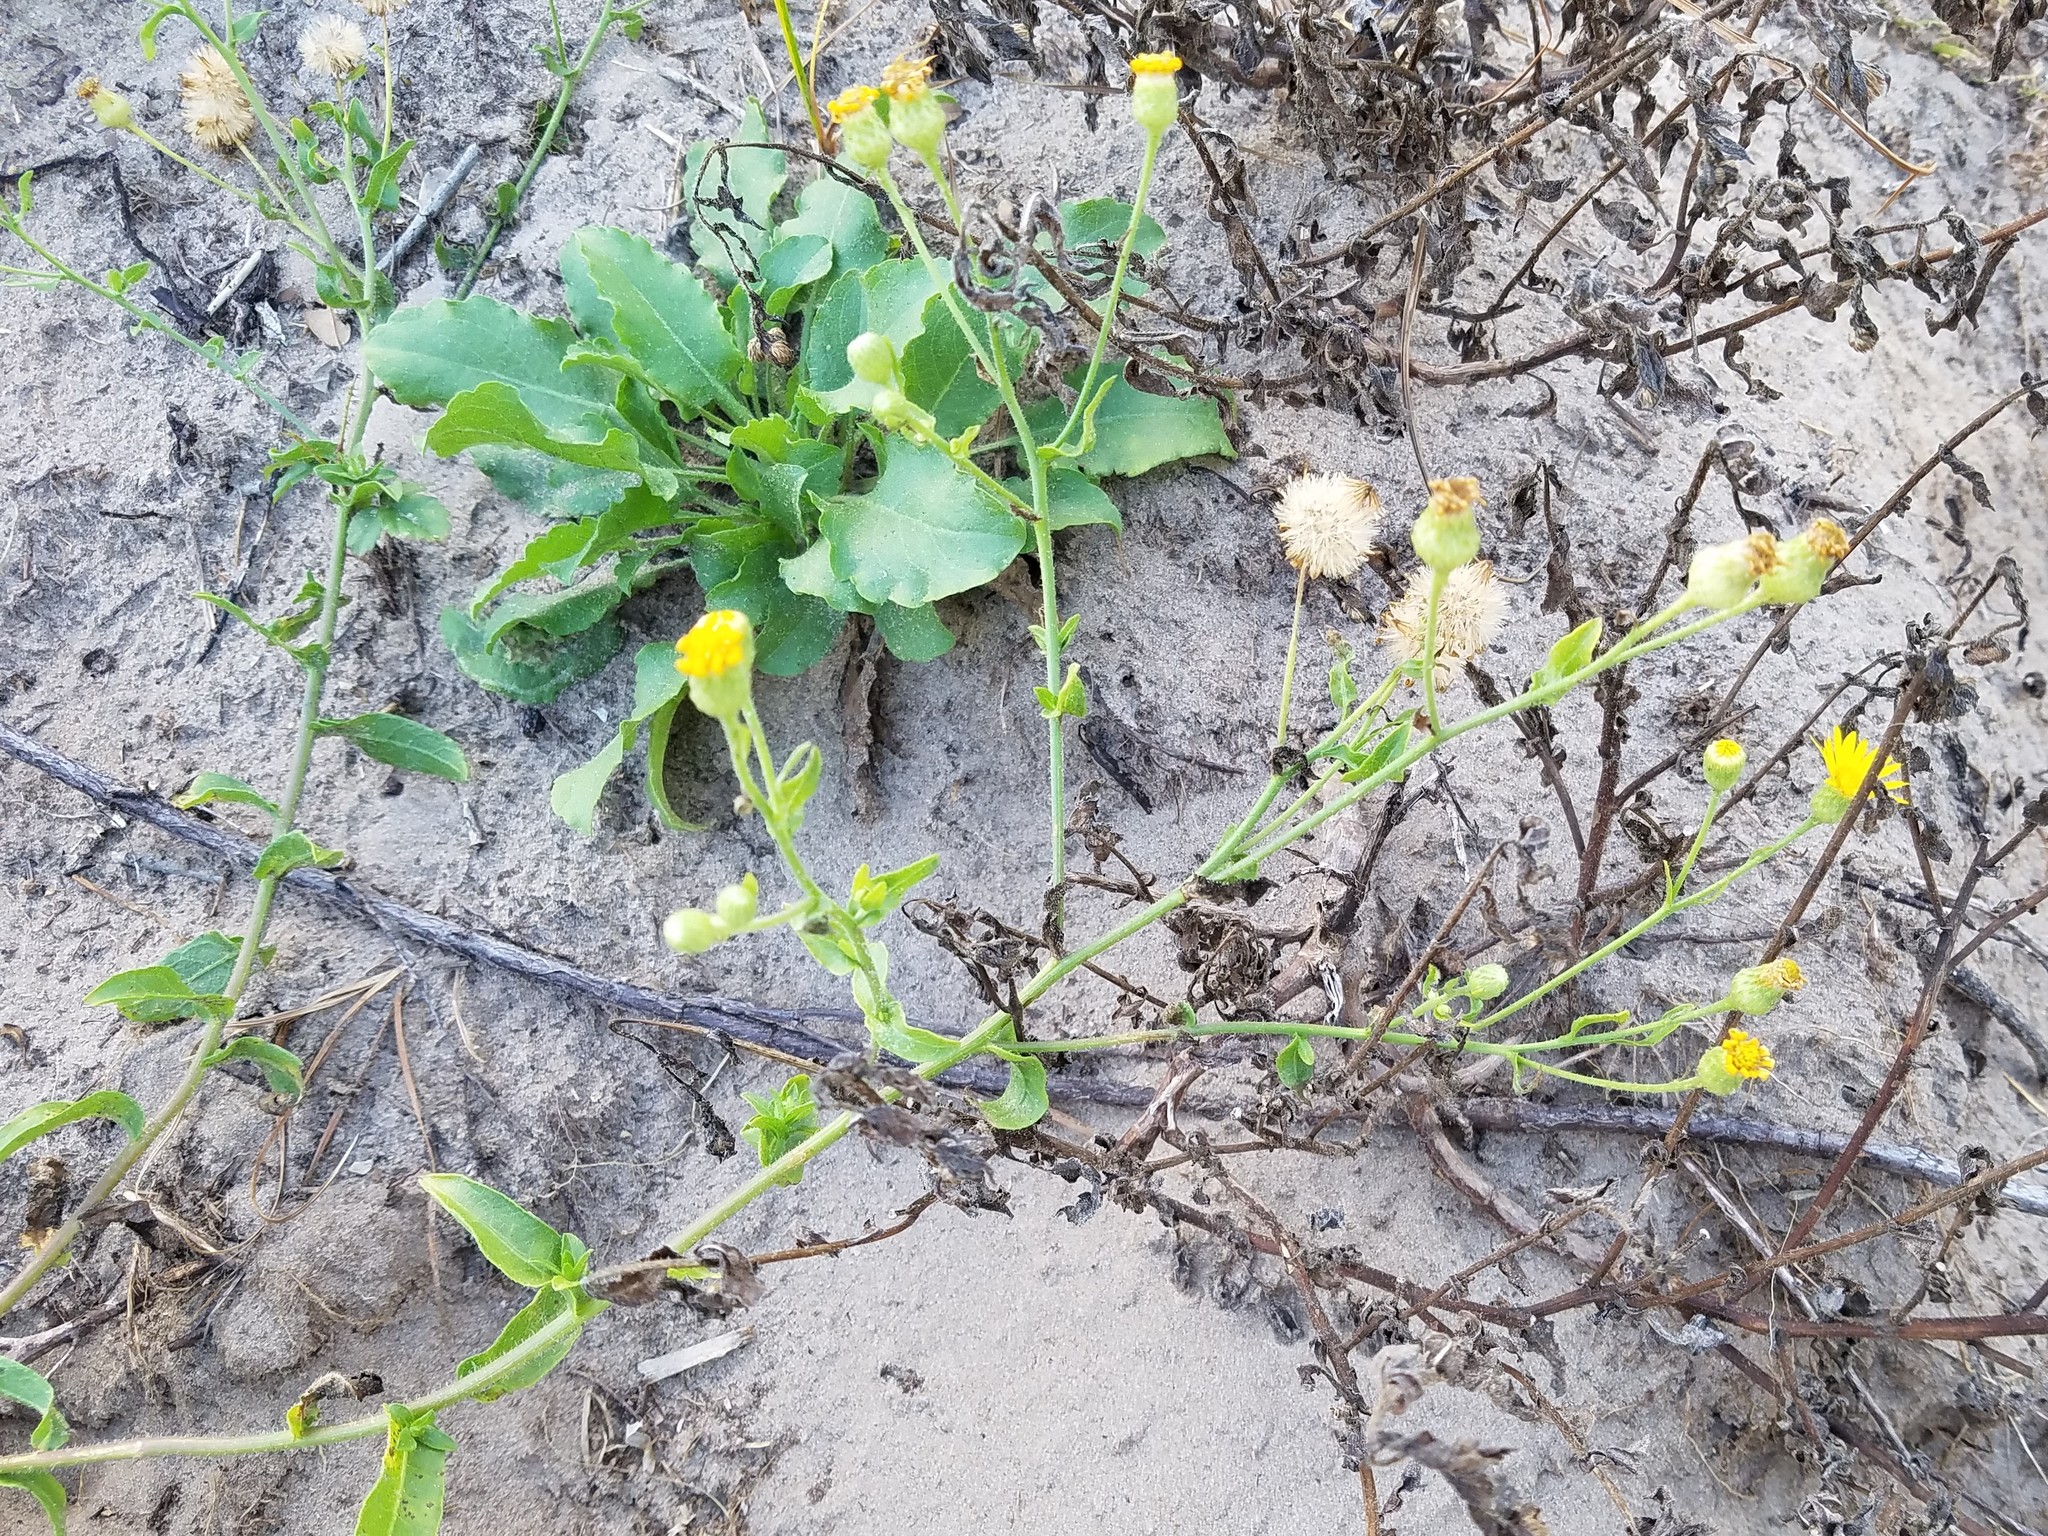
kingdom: Plantae
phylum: Tracheophyta
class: Magnoliopsida
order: Asterales
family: Asteraceae
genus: Heterotheca
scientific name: Heterotheca subaxillaris
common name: Camphorweed
